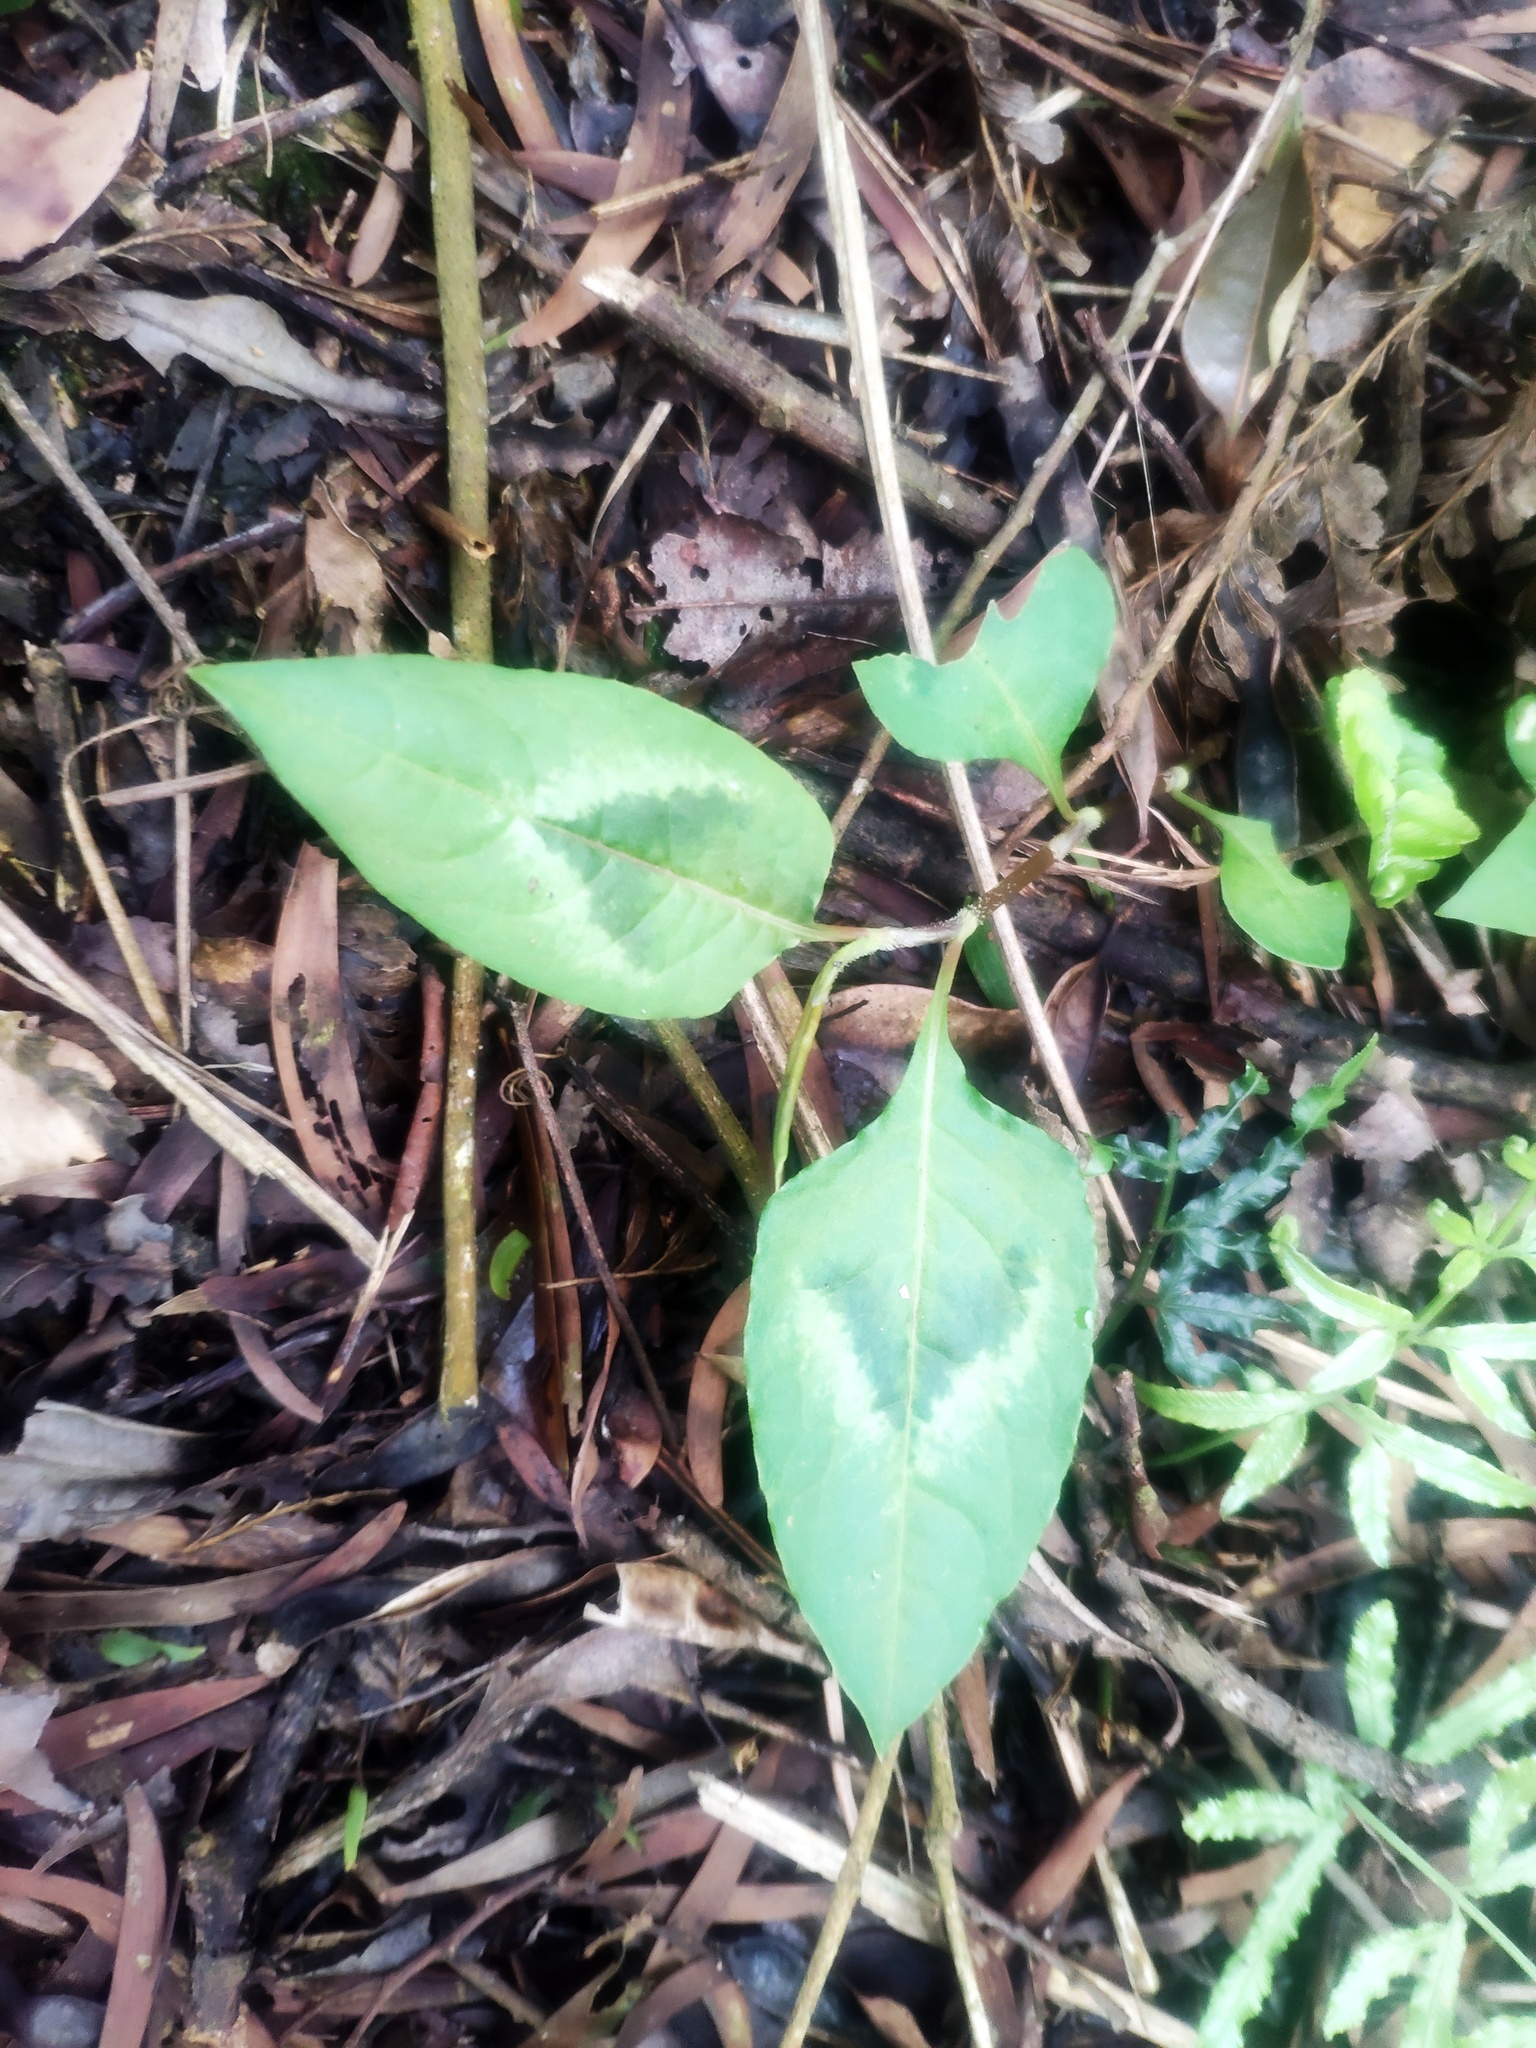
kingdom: Plantae
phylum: Tracheophyta
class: Magnoliopsida
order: Caryophyllales
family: Polygonaceae
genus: Persicaria
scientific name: Persicaria chinensis
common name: Chinese knotweed
